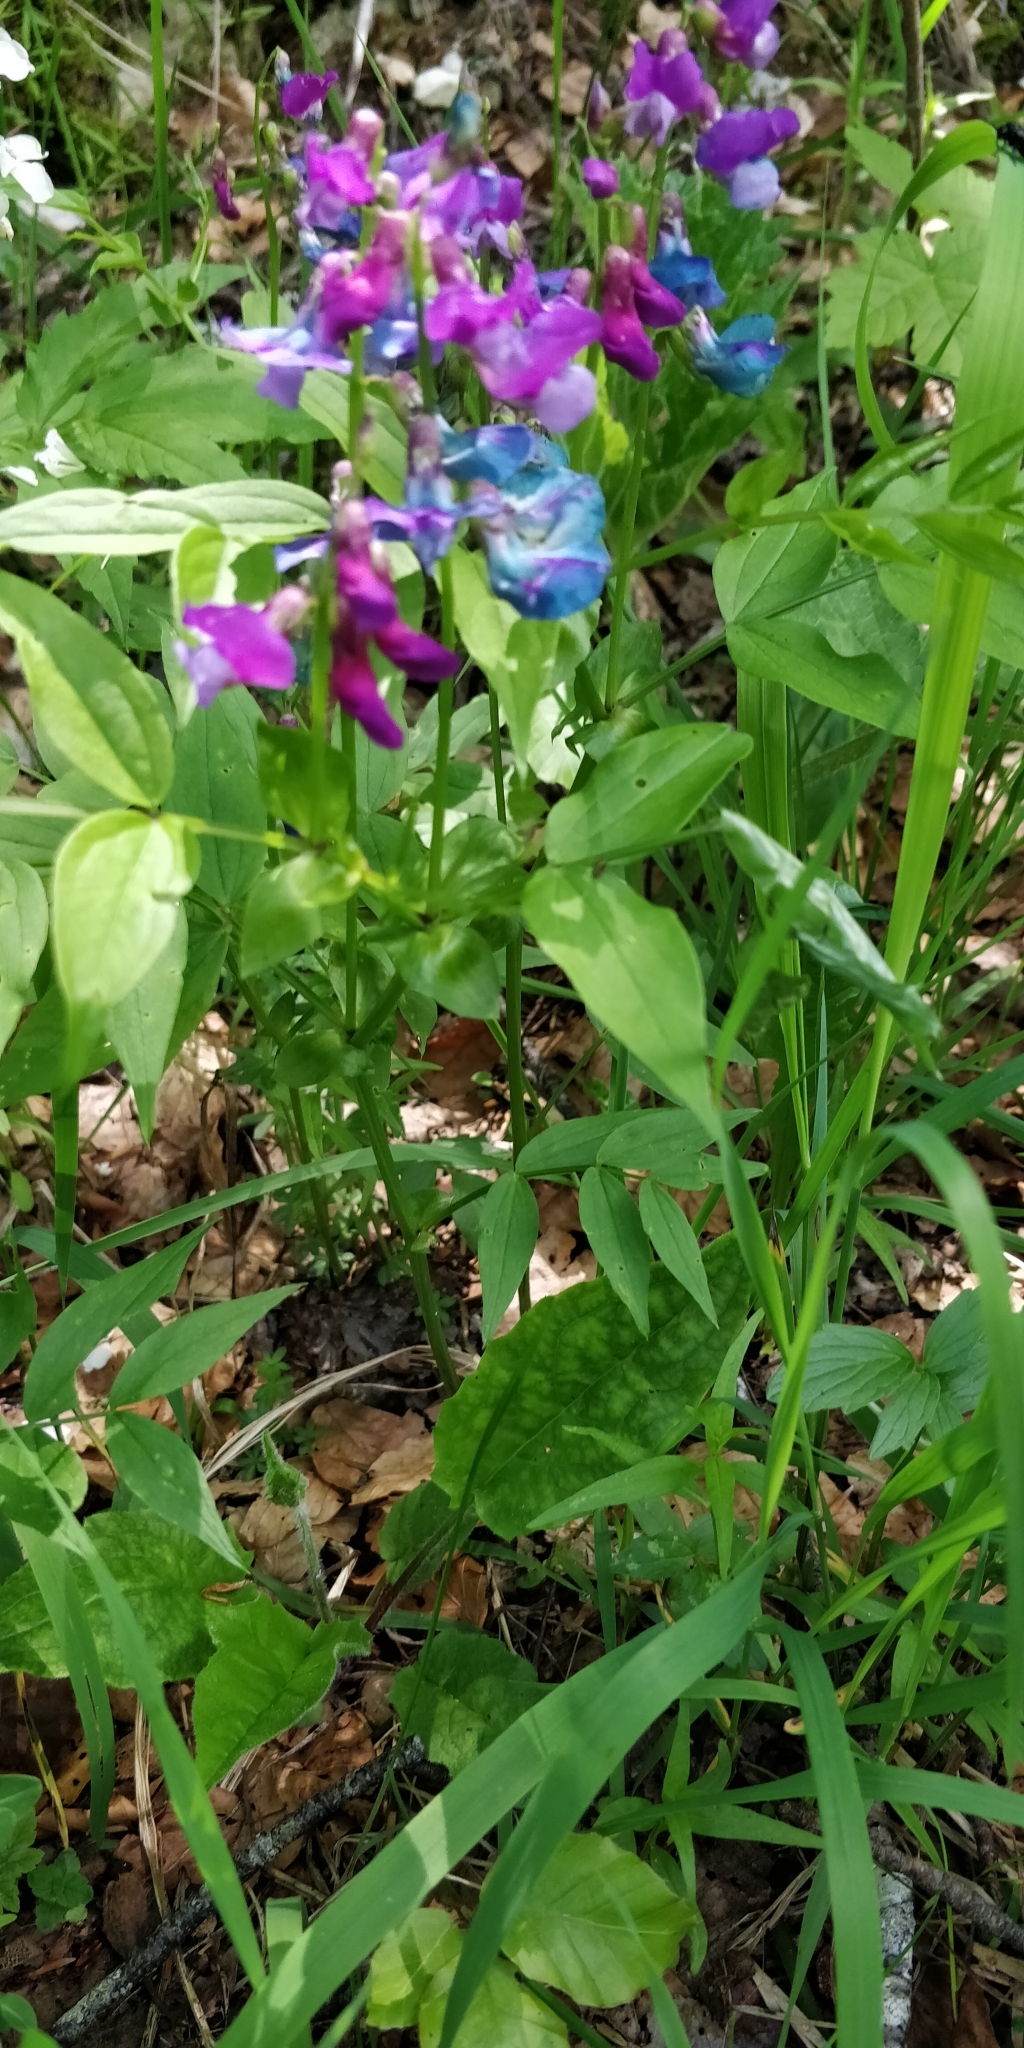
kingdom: Plantae
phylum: Tracheophyta
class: Magnoliopsida
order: Fabales
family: Fabaceae
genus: Lathyrus
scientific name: Lathyrus vernus
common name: Spring pea
